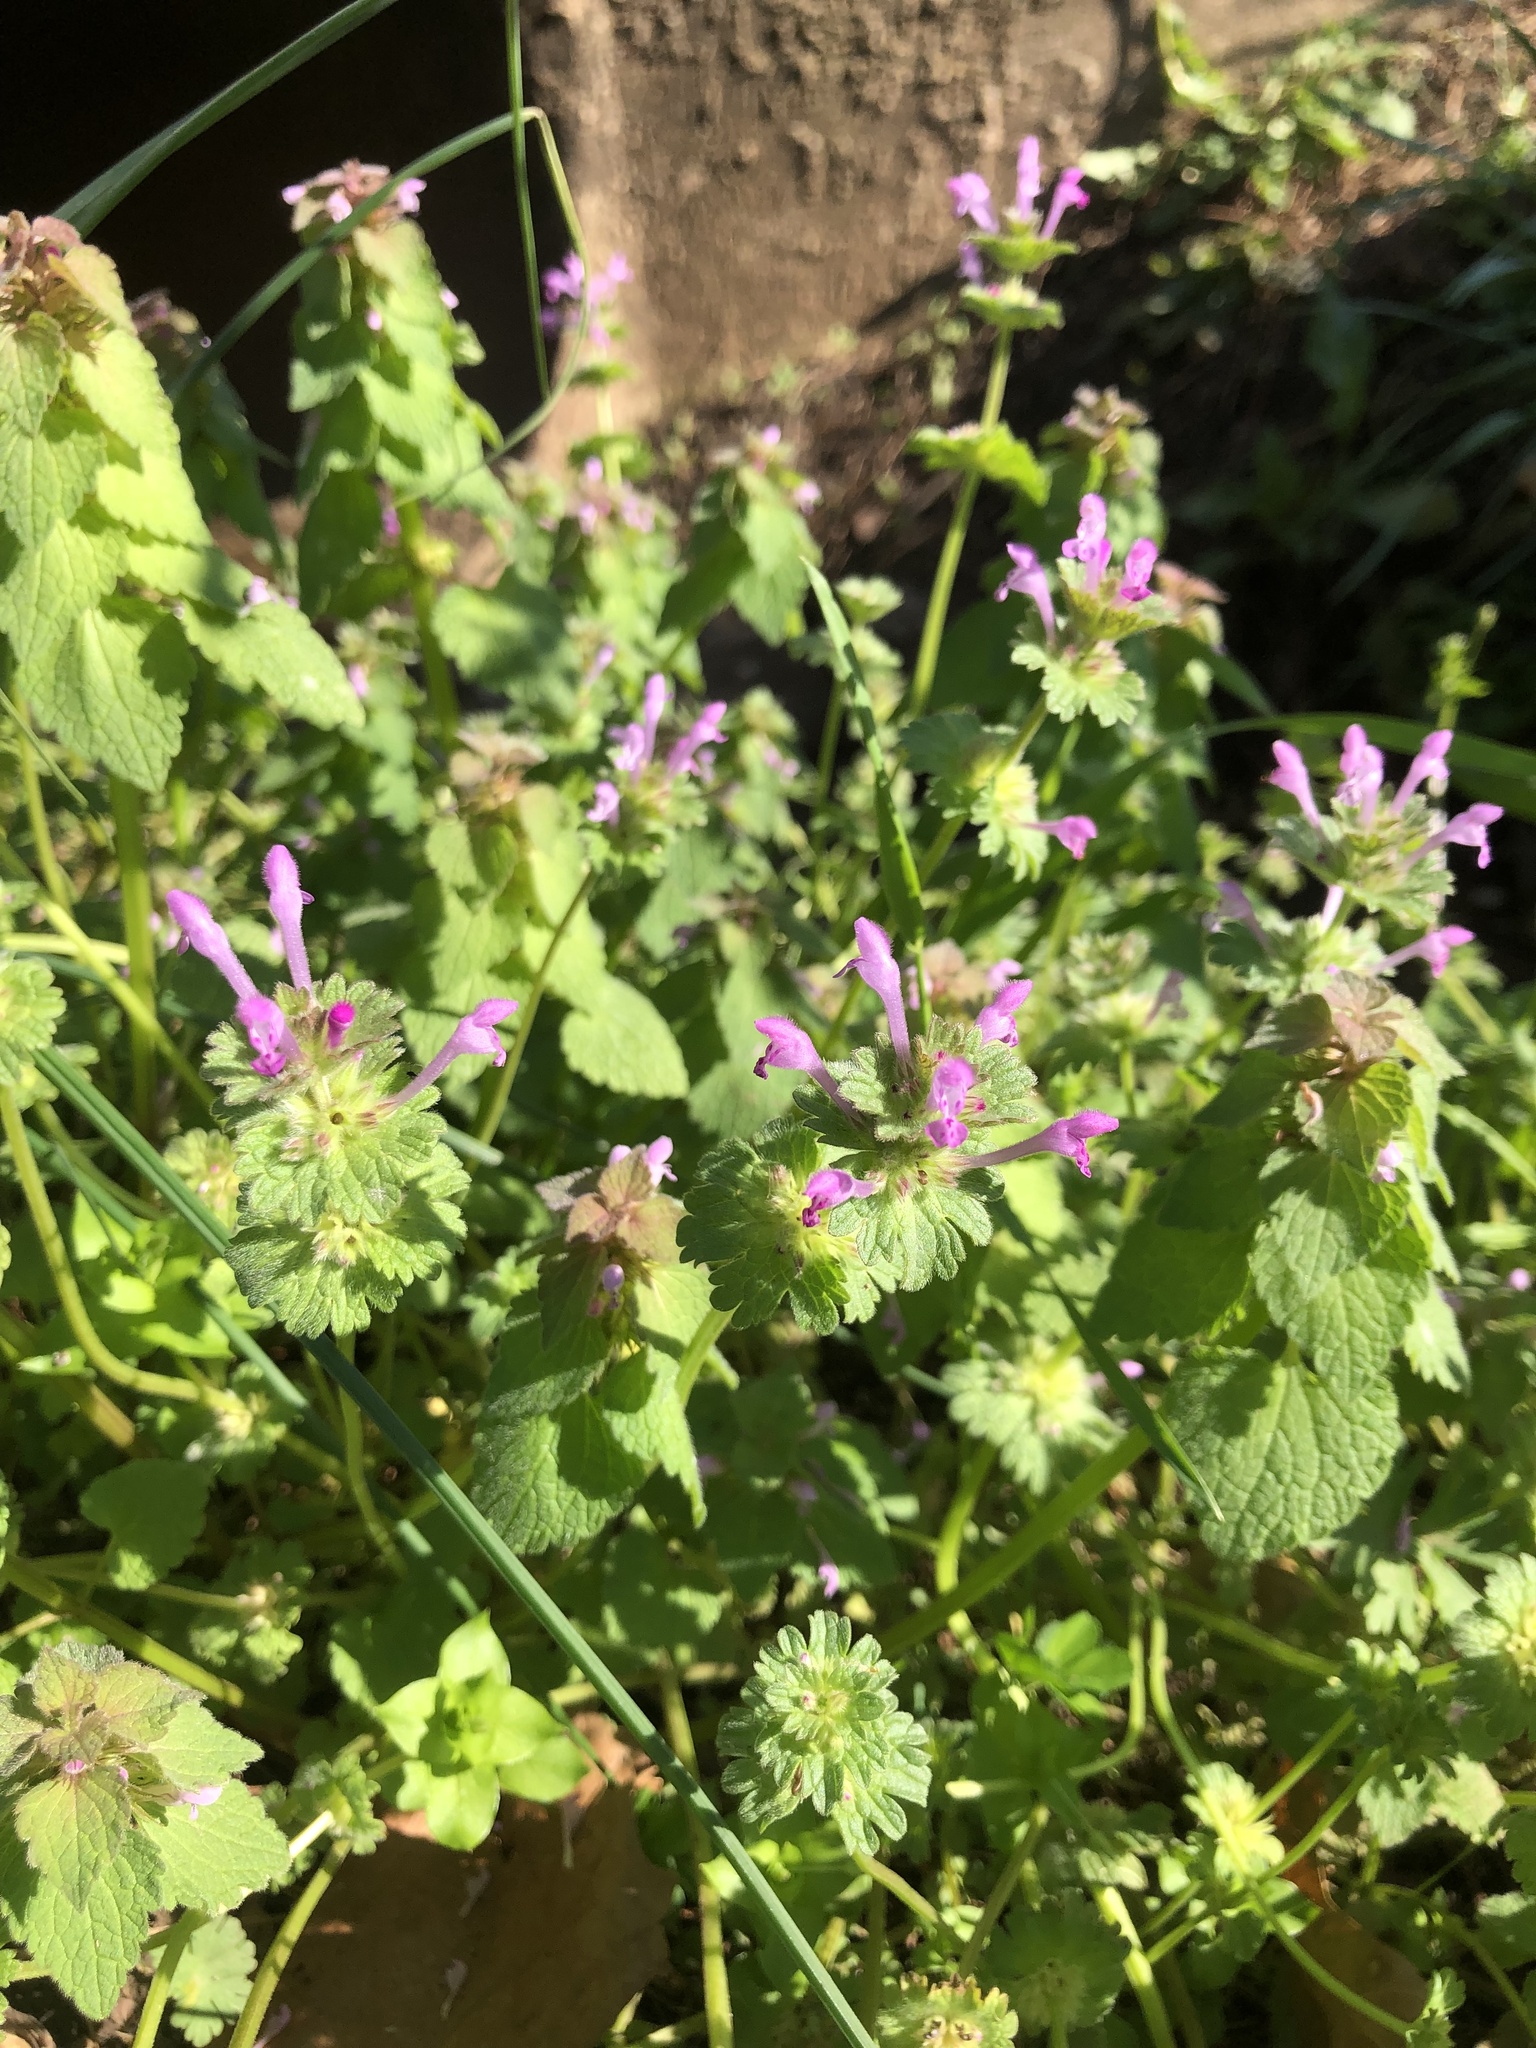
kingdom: Plantae
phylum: Tracheophyta
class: Magnoliopsida
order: Lamiales
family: Lamiaceae
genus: Lamium
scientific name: Lamium amplexicaule
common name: Henbit dead-nettle
